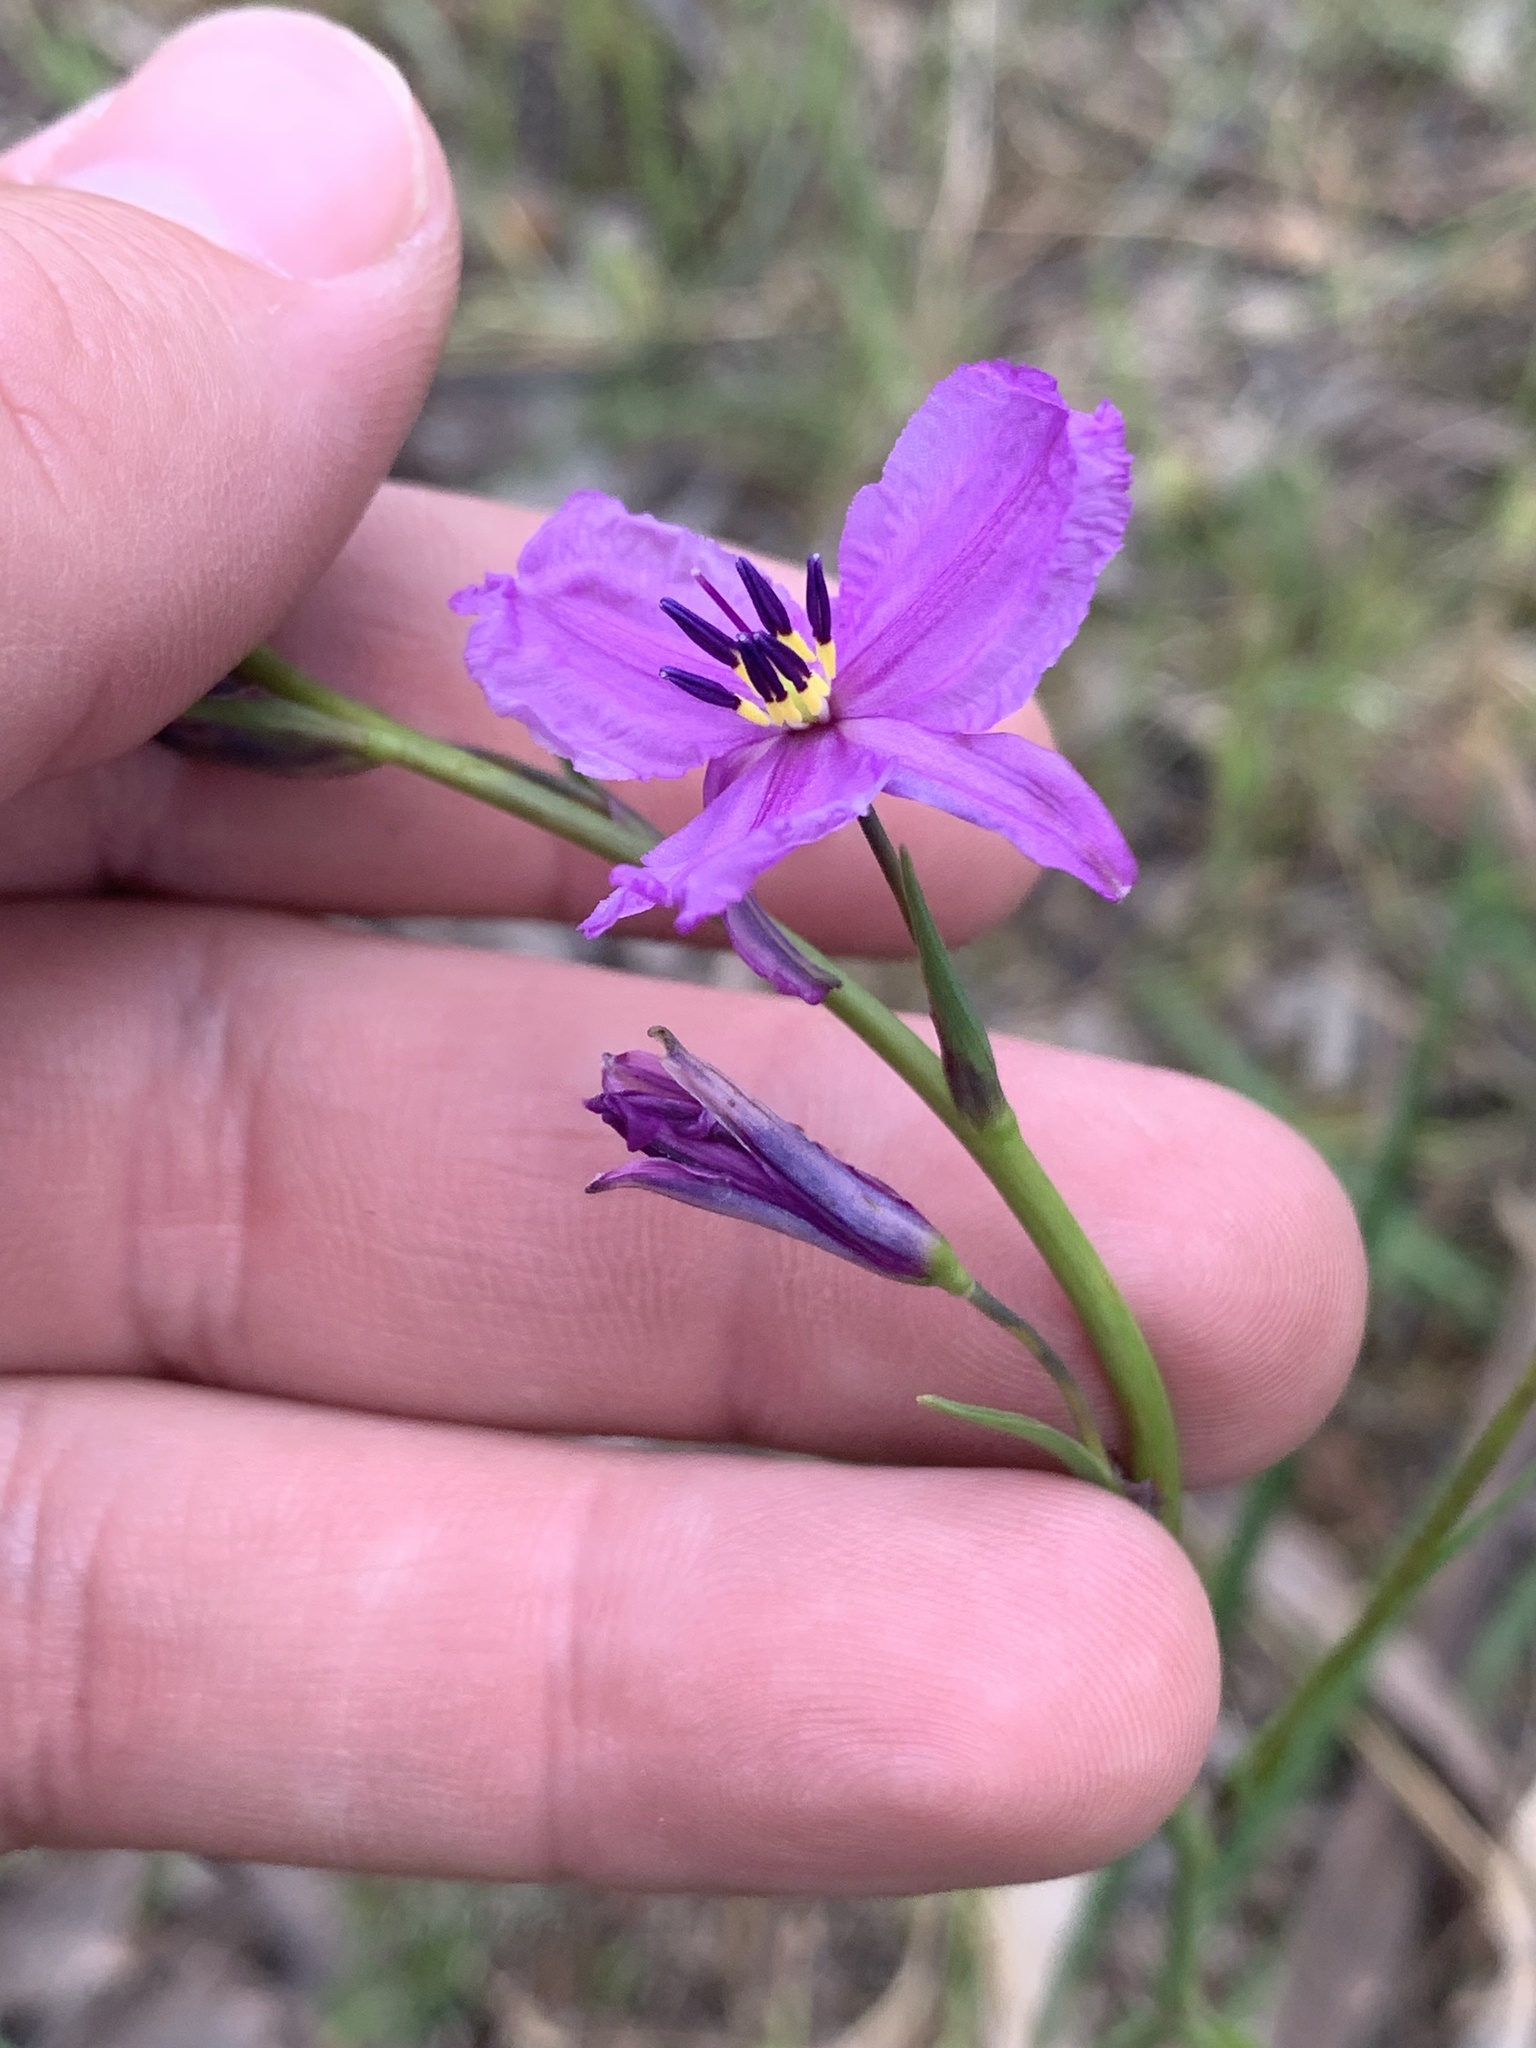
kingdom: Plantae
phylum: Tracheophyta
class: Liliopsida
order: Asparagales
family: Asparagaceae
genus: Arthropodium
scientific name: Arthropodium strictum
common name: Chocolate-lily
